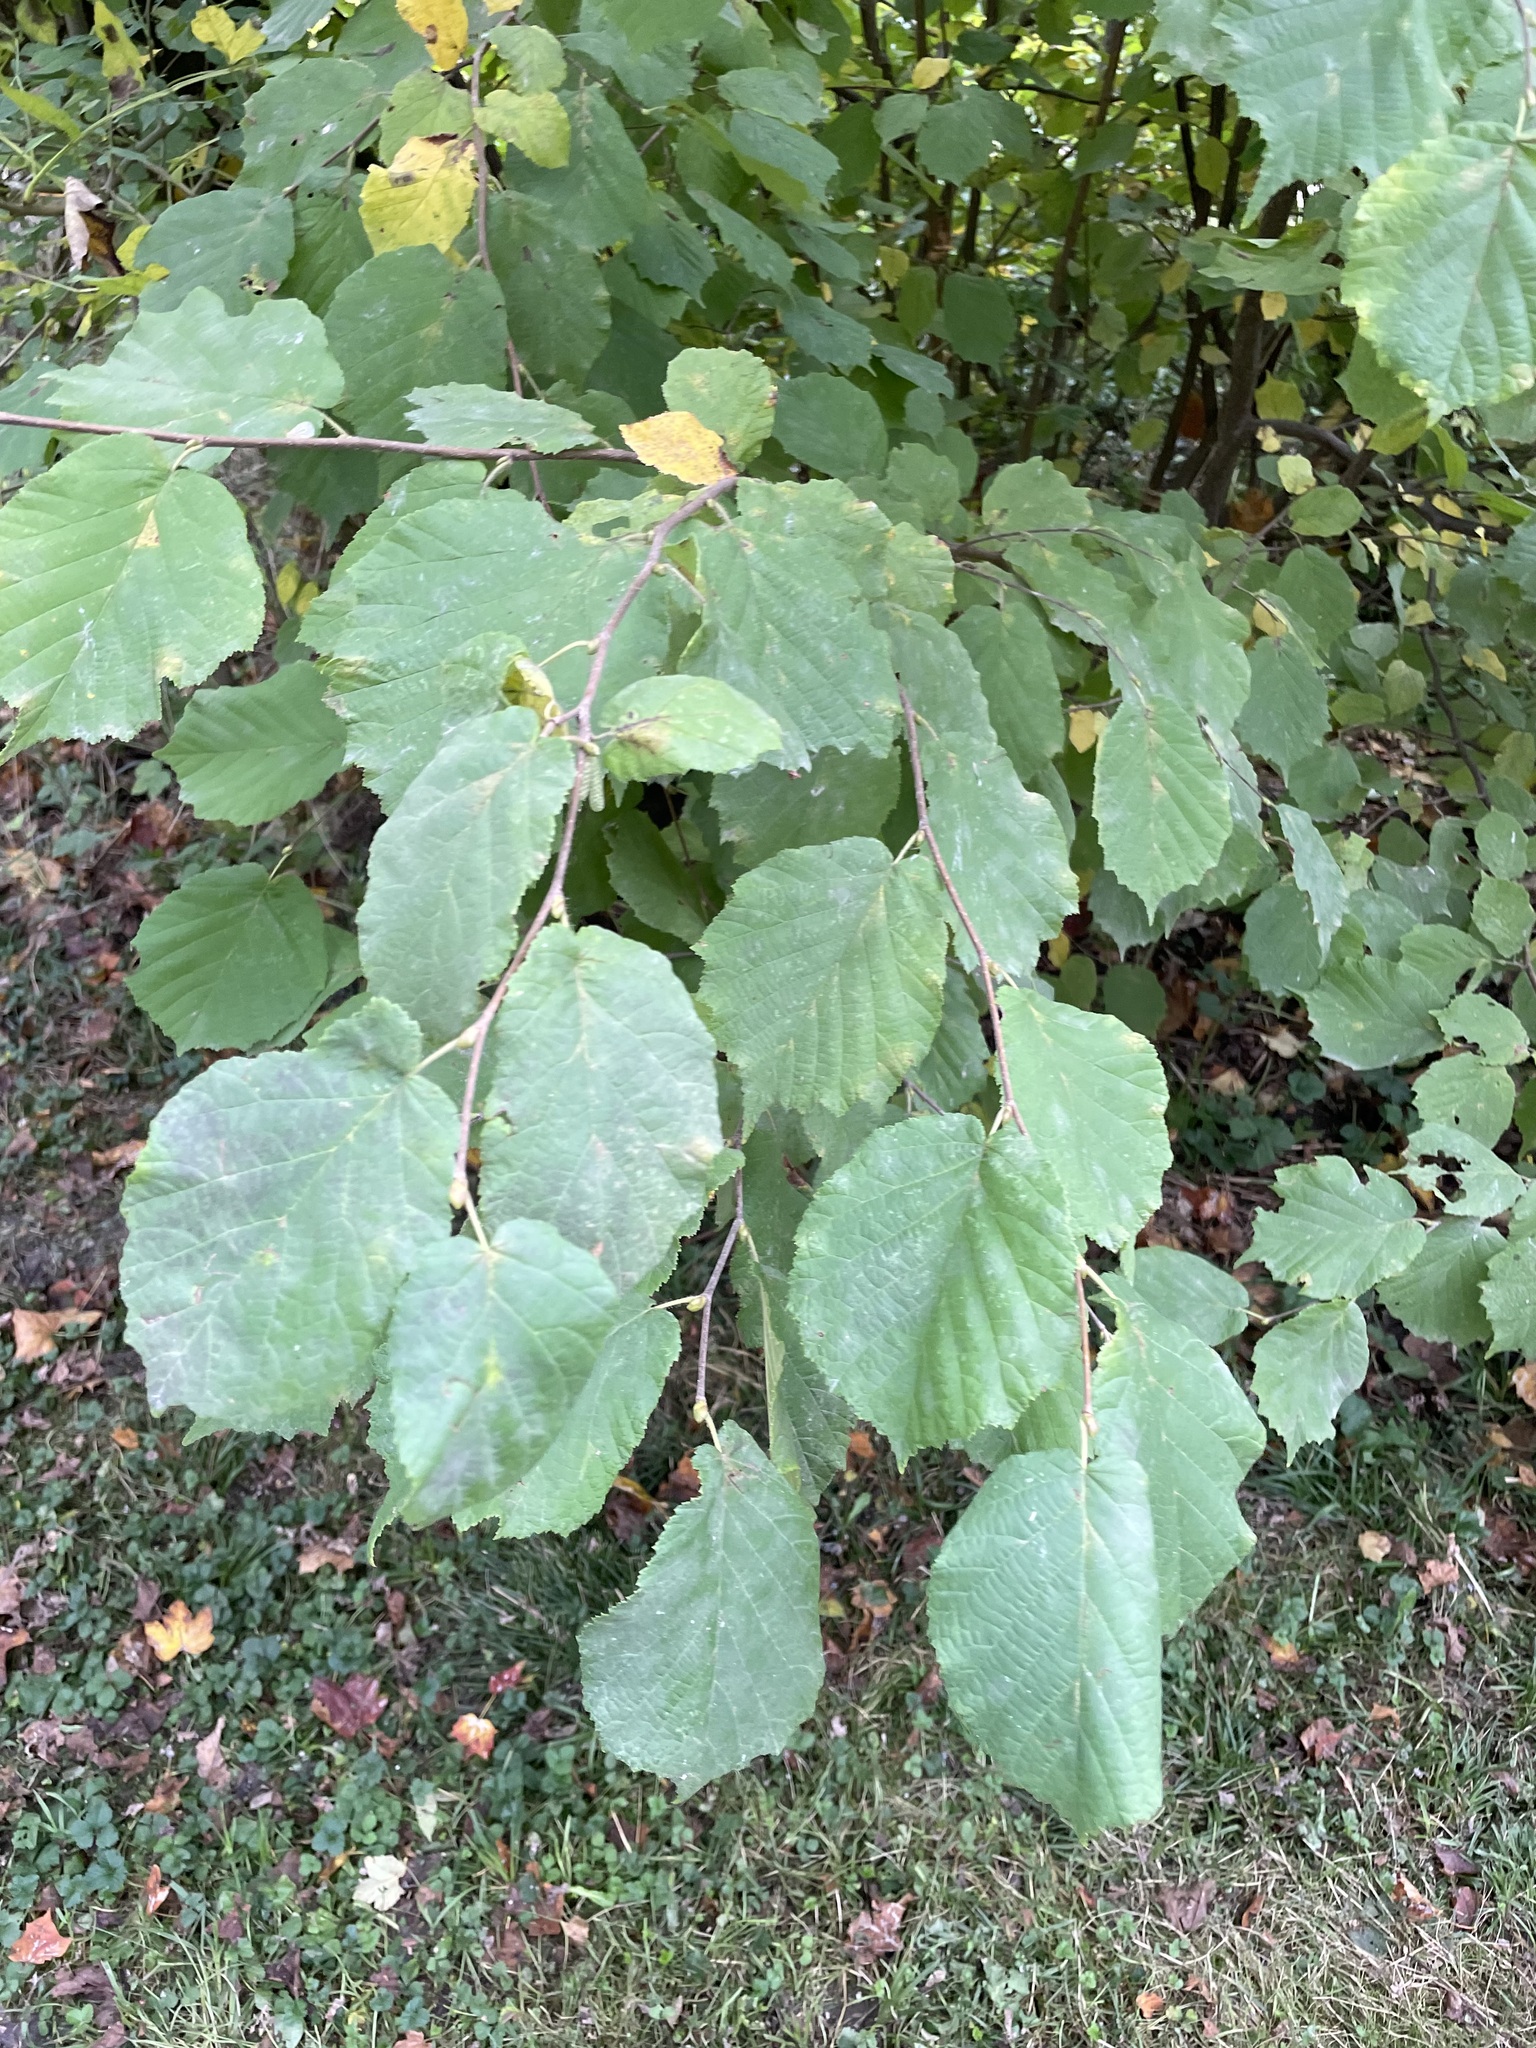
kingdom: Plantae
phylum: Tracheophyta
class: Magnoliopsida
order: Fagales
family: Betulaceae
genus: Corylus
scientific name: Corylus avellana
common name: European hazel
